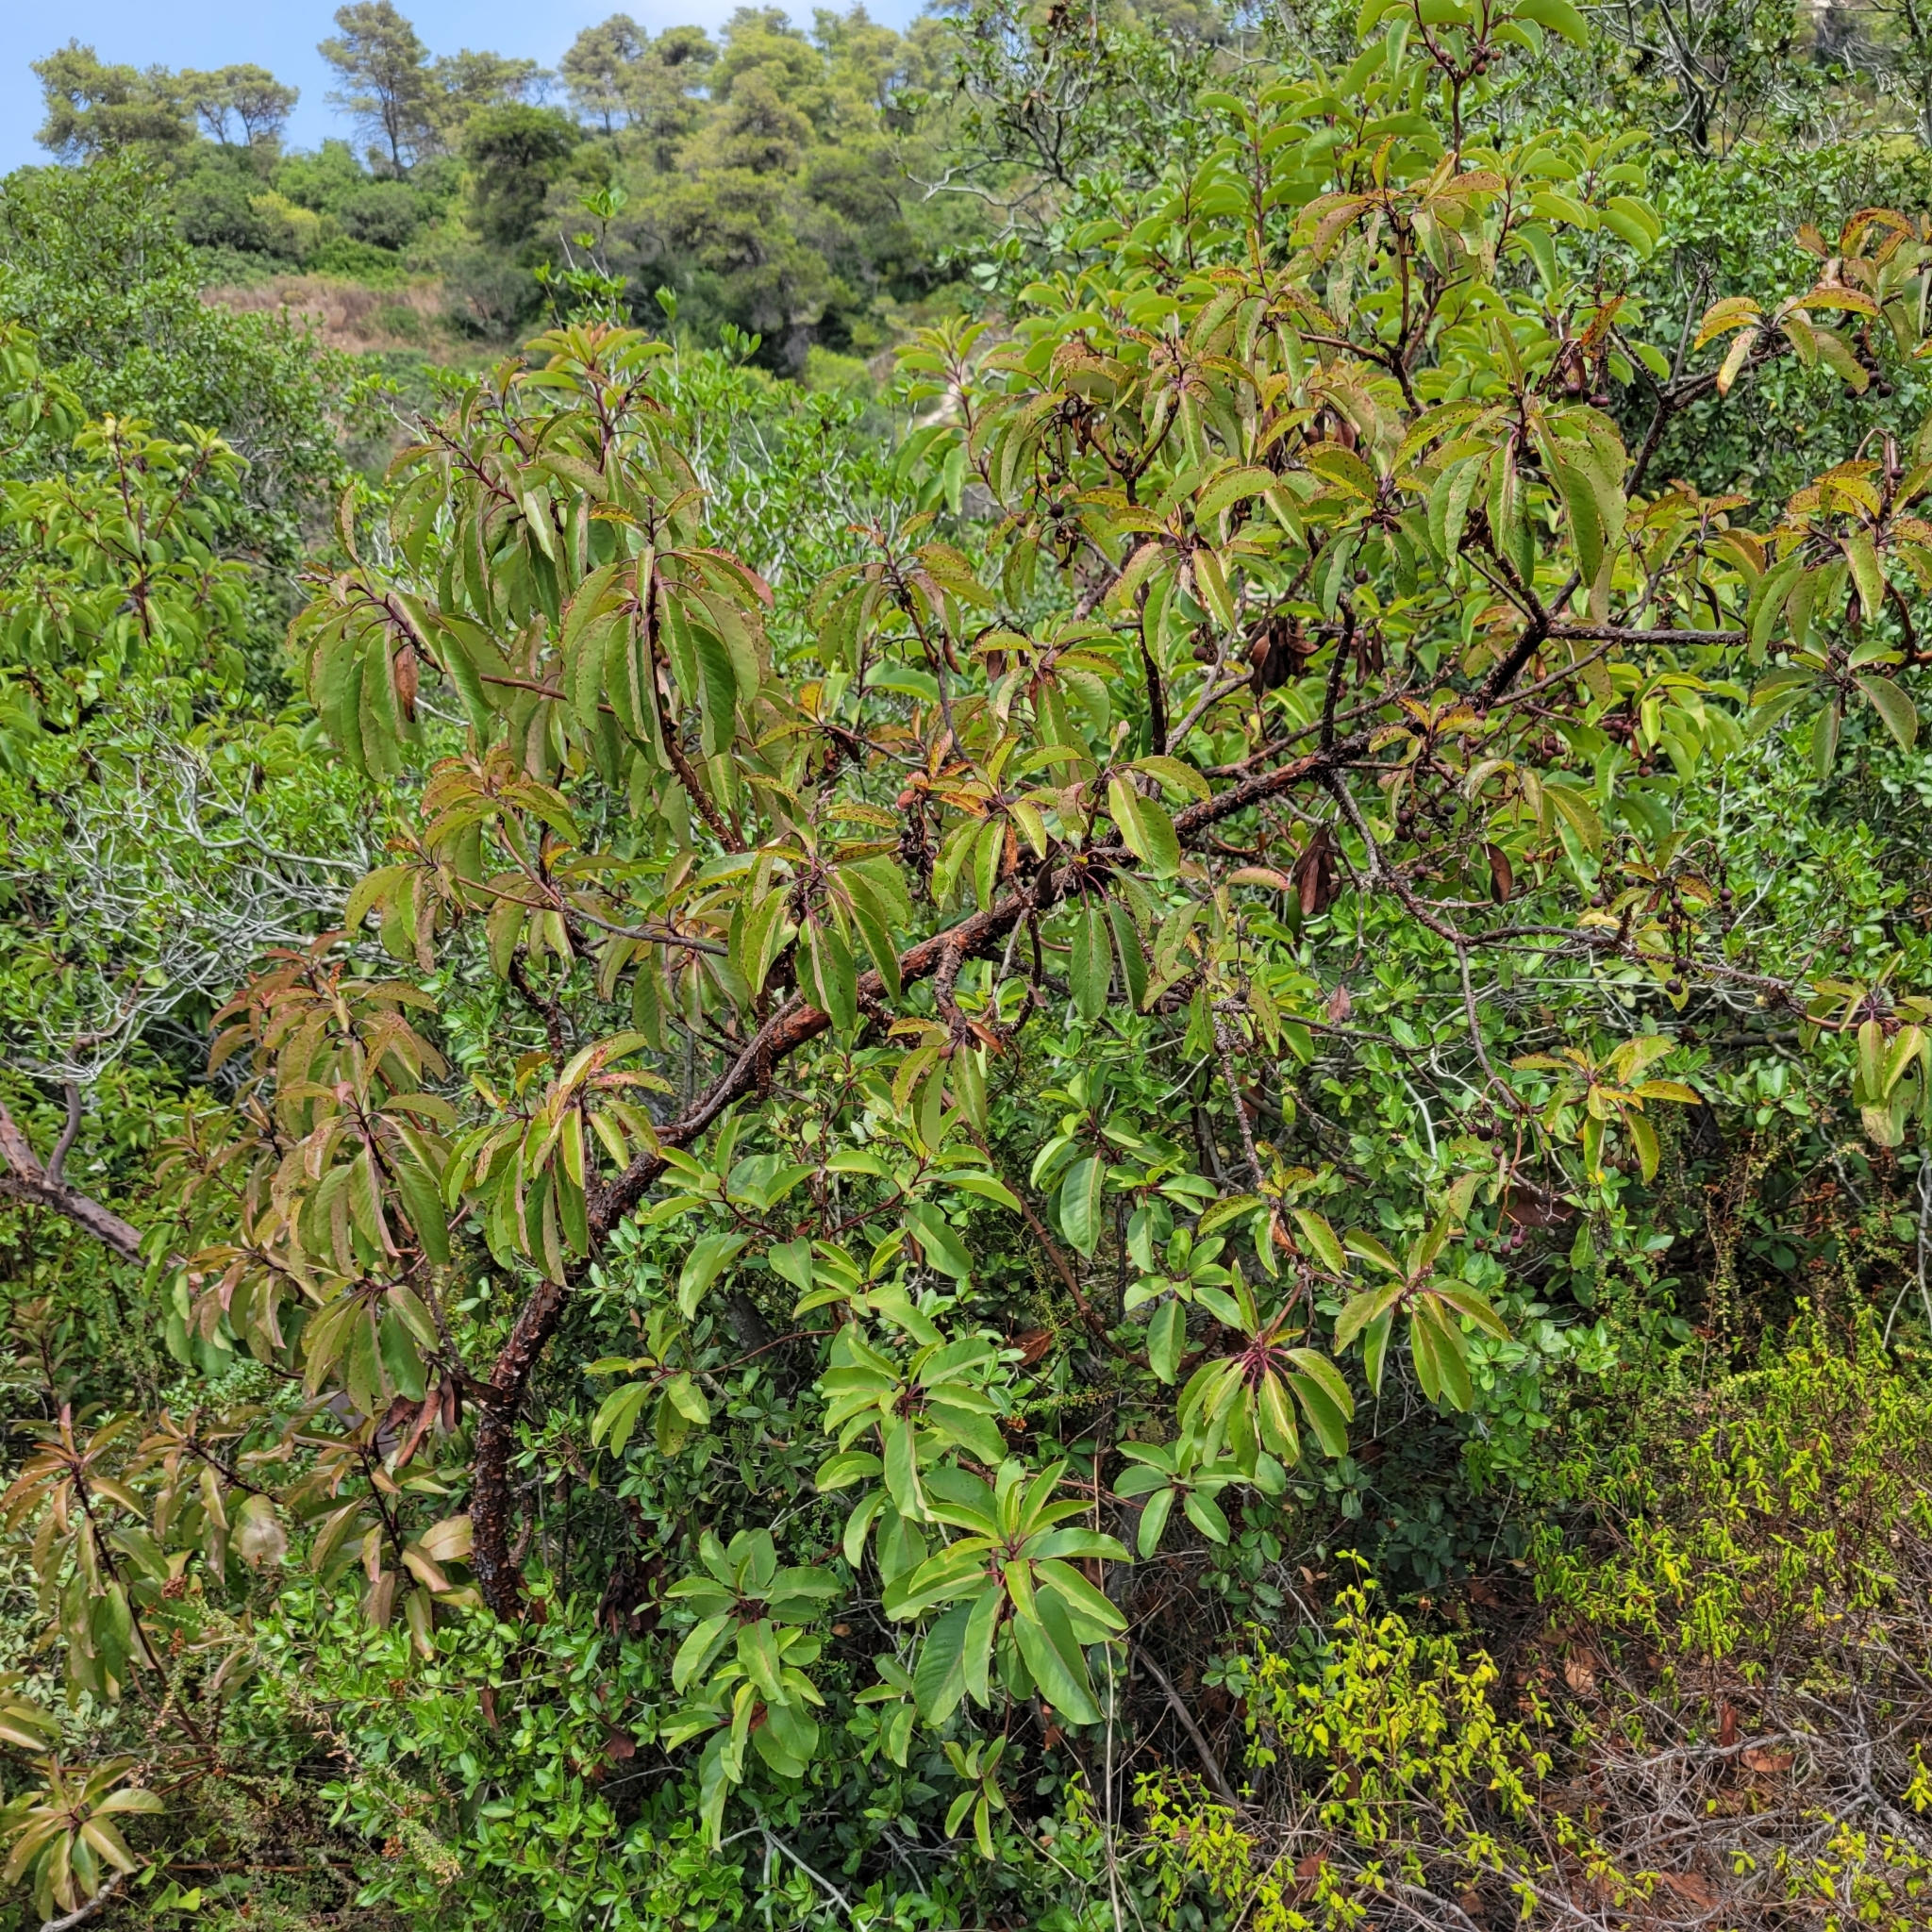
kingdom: Plantae
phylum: Tracheophyta
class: Magnoliopsida
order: Ericales
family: Ericaceae
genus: Arbutus
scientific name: Arbutus andrachne
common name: Greek strawberry tree
